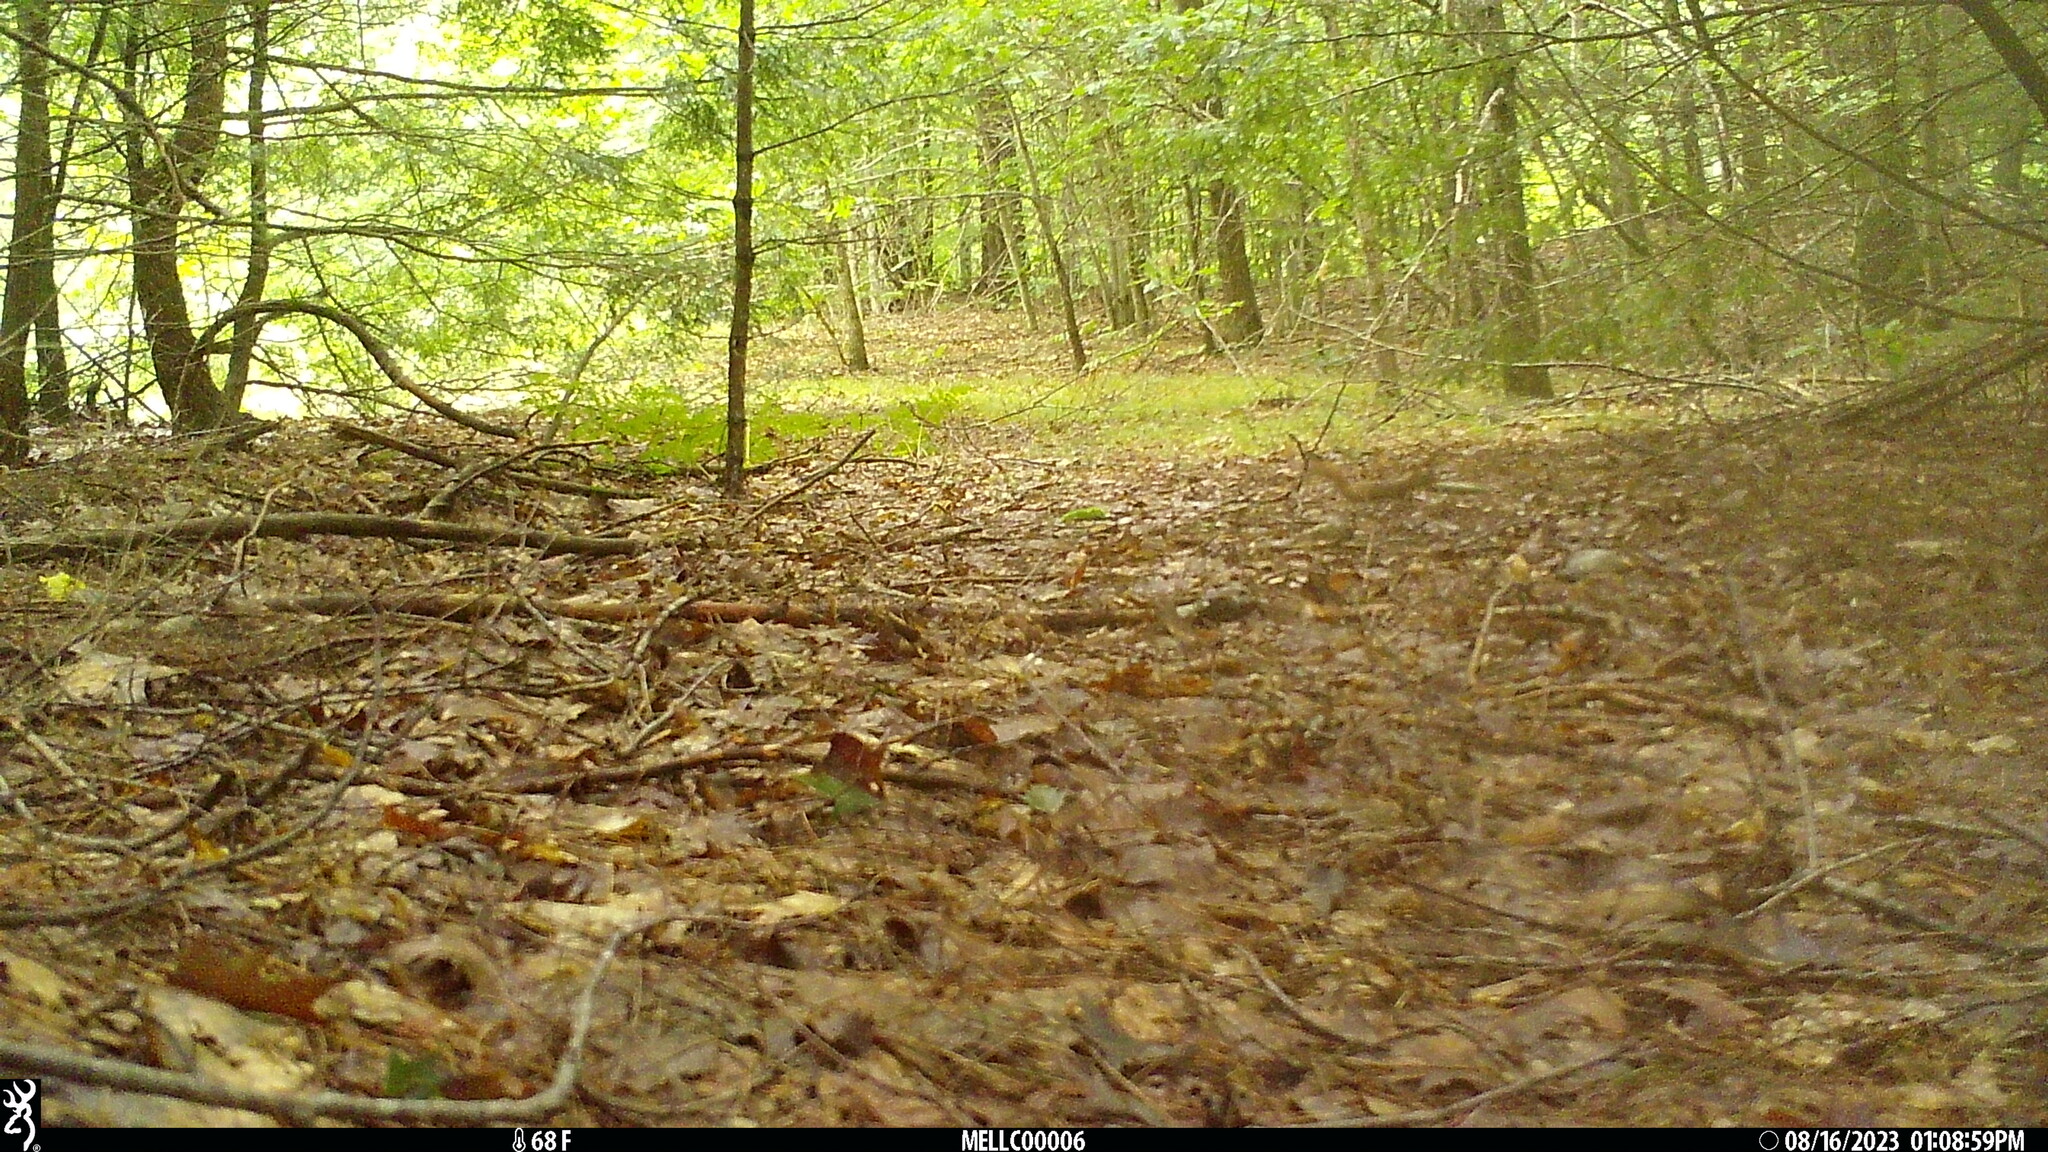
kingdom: Animalia
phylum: Chordata
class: Mammalia
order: Rodentia
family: Sciuridae
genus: Tamiasciurus
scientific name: Tamiasciurus hudsonicus
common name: Red squirrel
